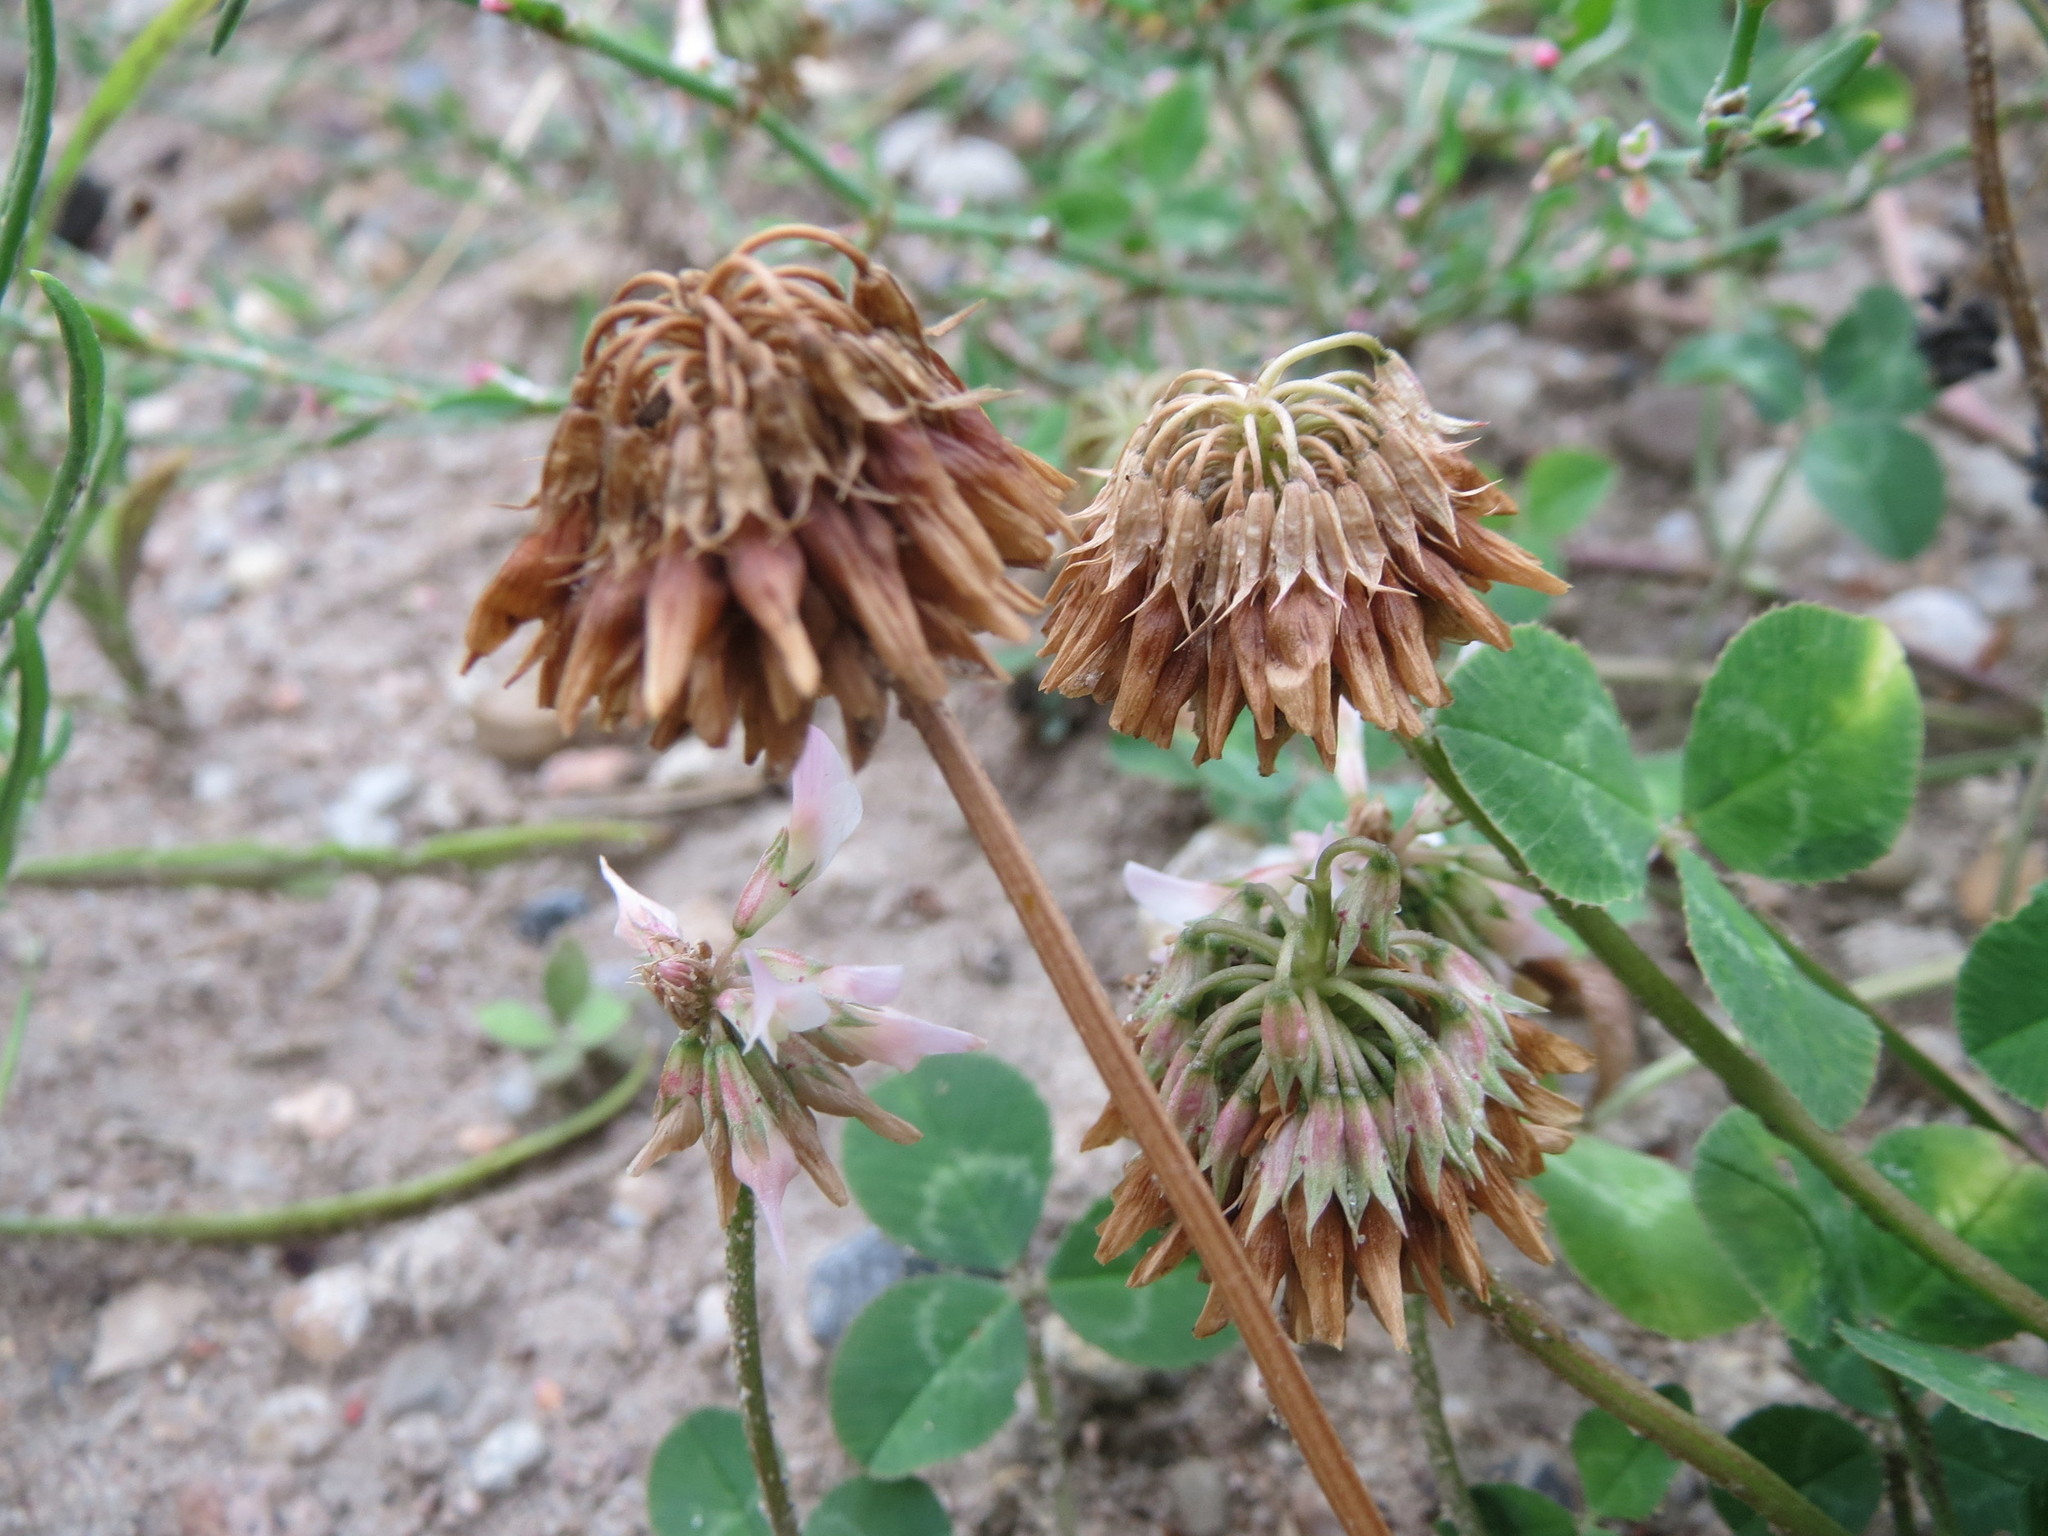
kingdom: Plantae
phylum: Tracheophyta
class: Magnoliopsida
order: Fabales
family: Fabaceae
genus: Trifolium
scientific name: Trifolium repens
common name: White clover
